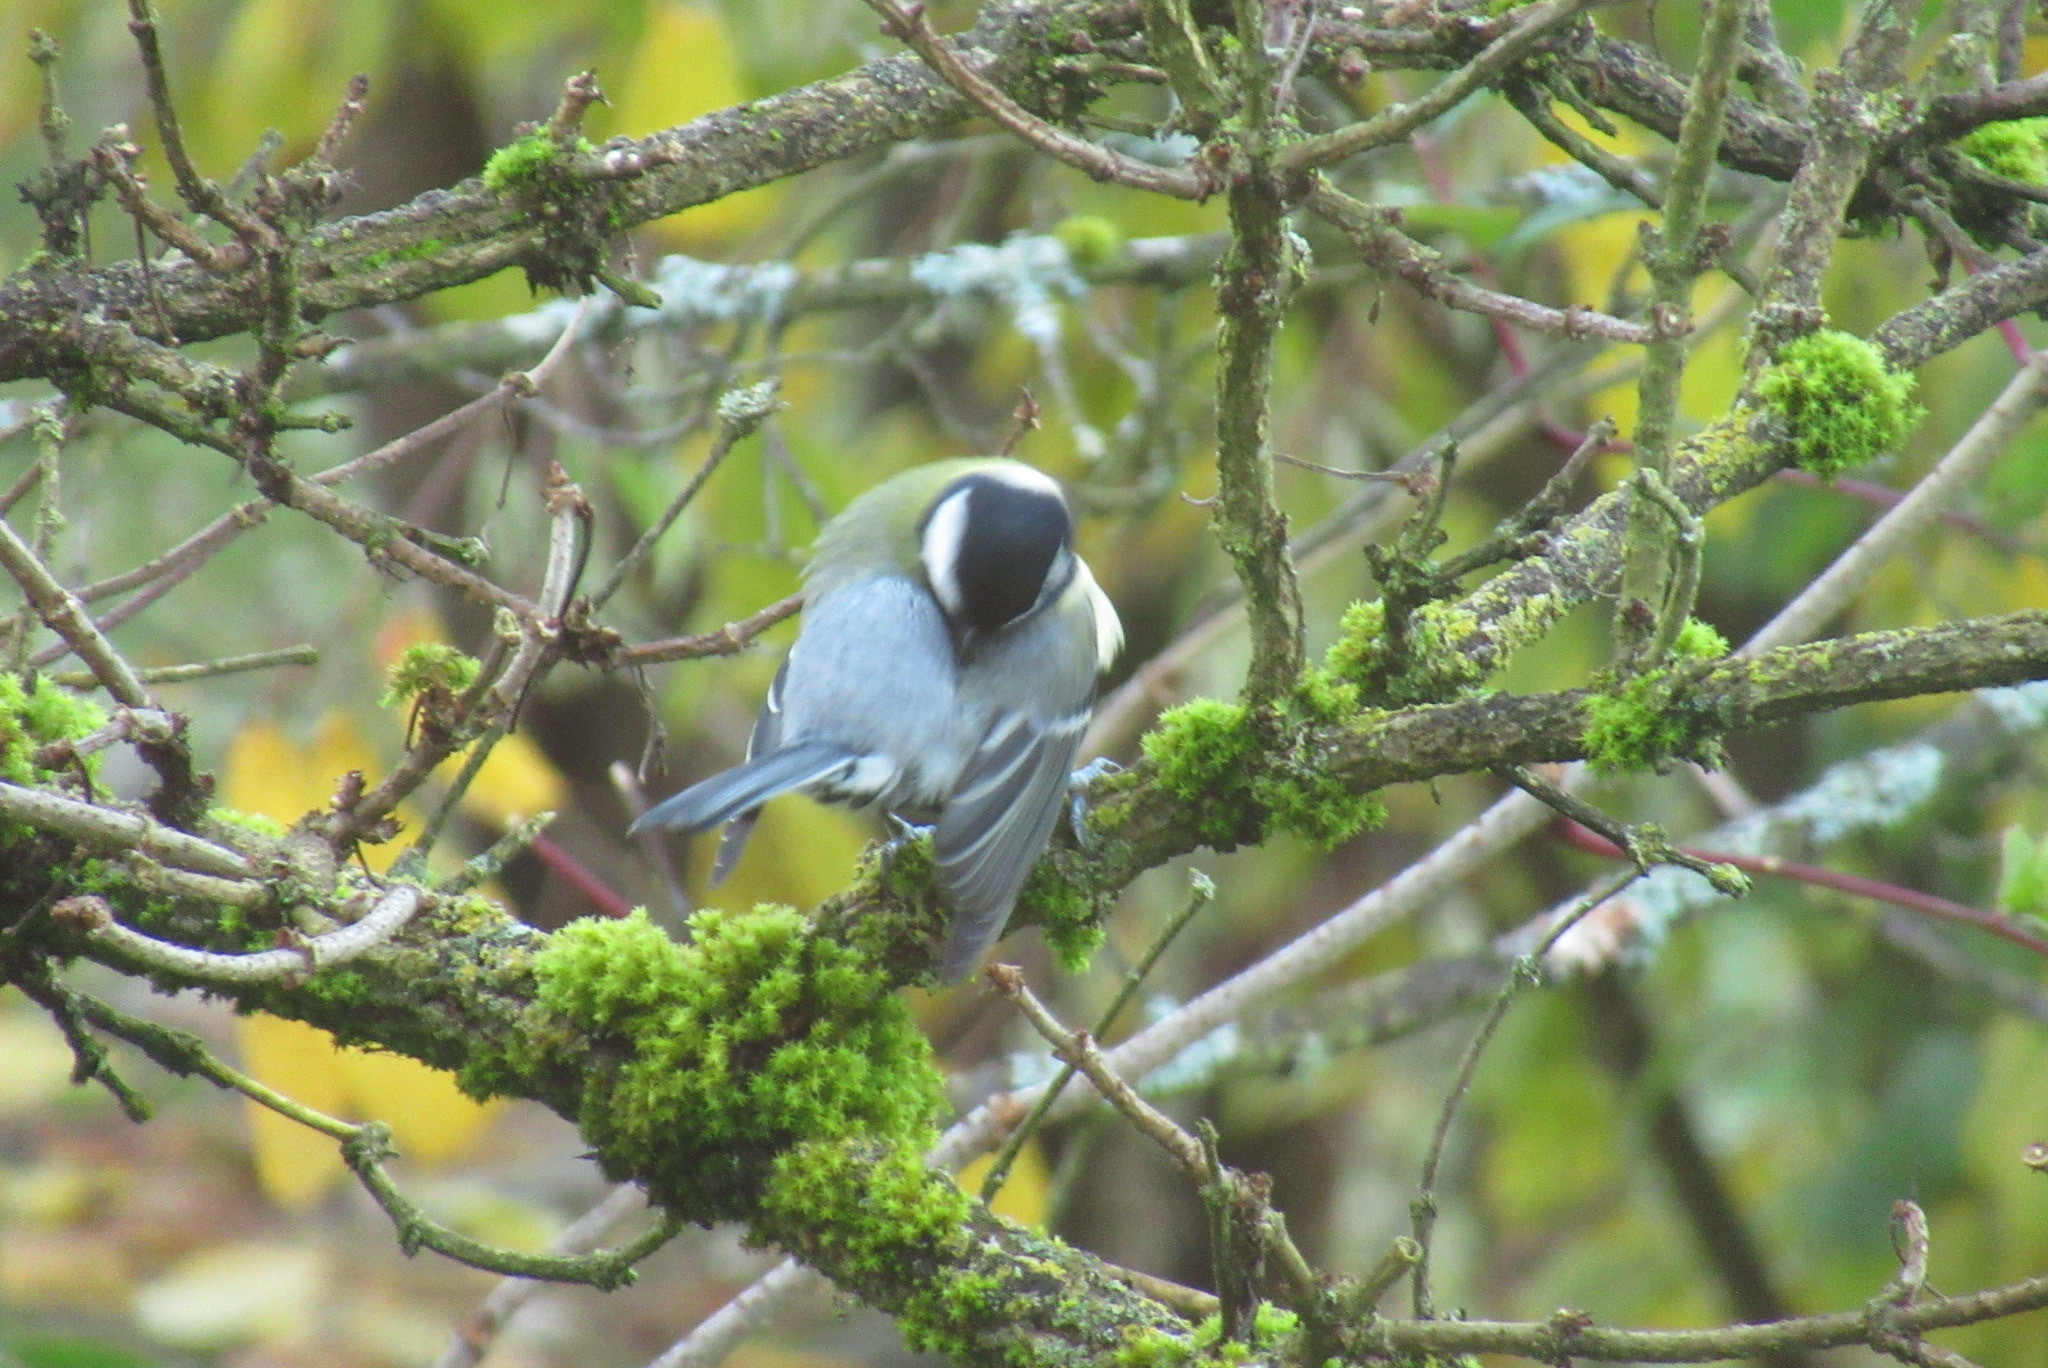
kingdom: Animalia
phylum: Chordata
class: Aves
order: Passeriformes
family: Paridae
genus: Parus
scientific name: Parus major
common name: Great tit
